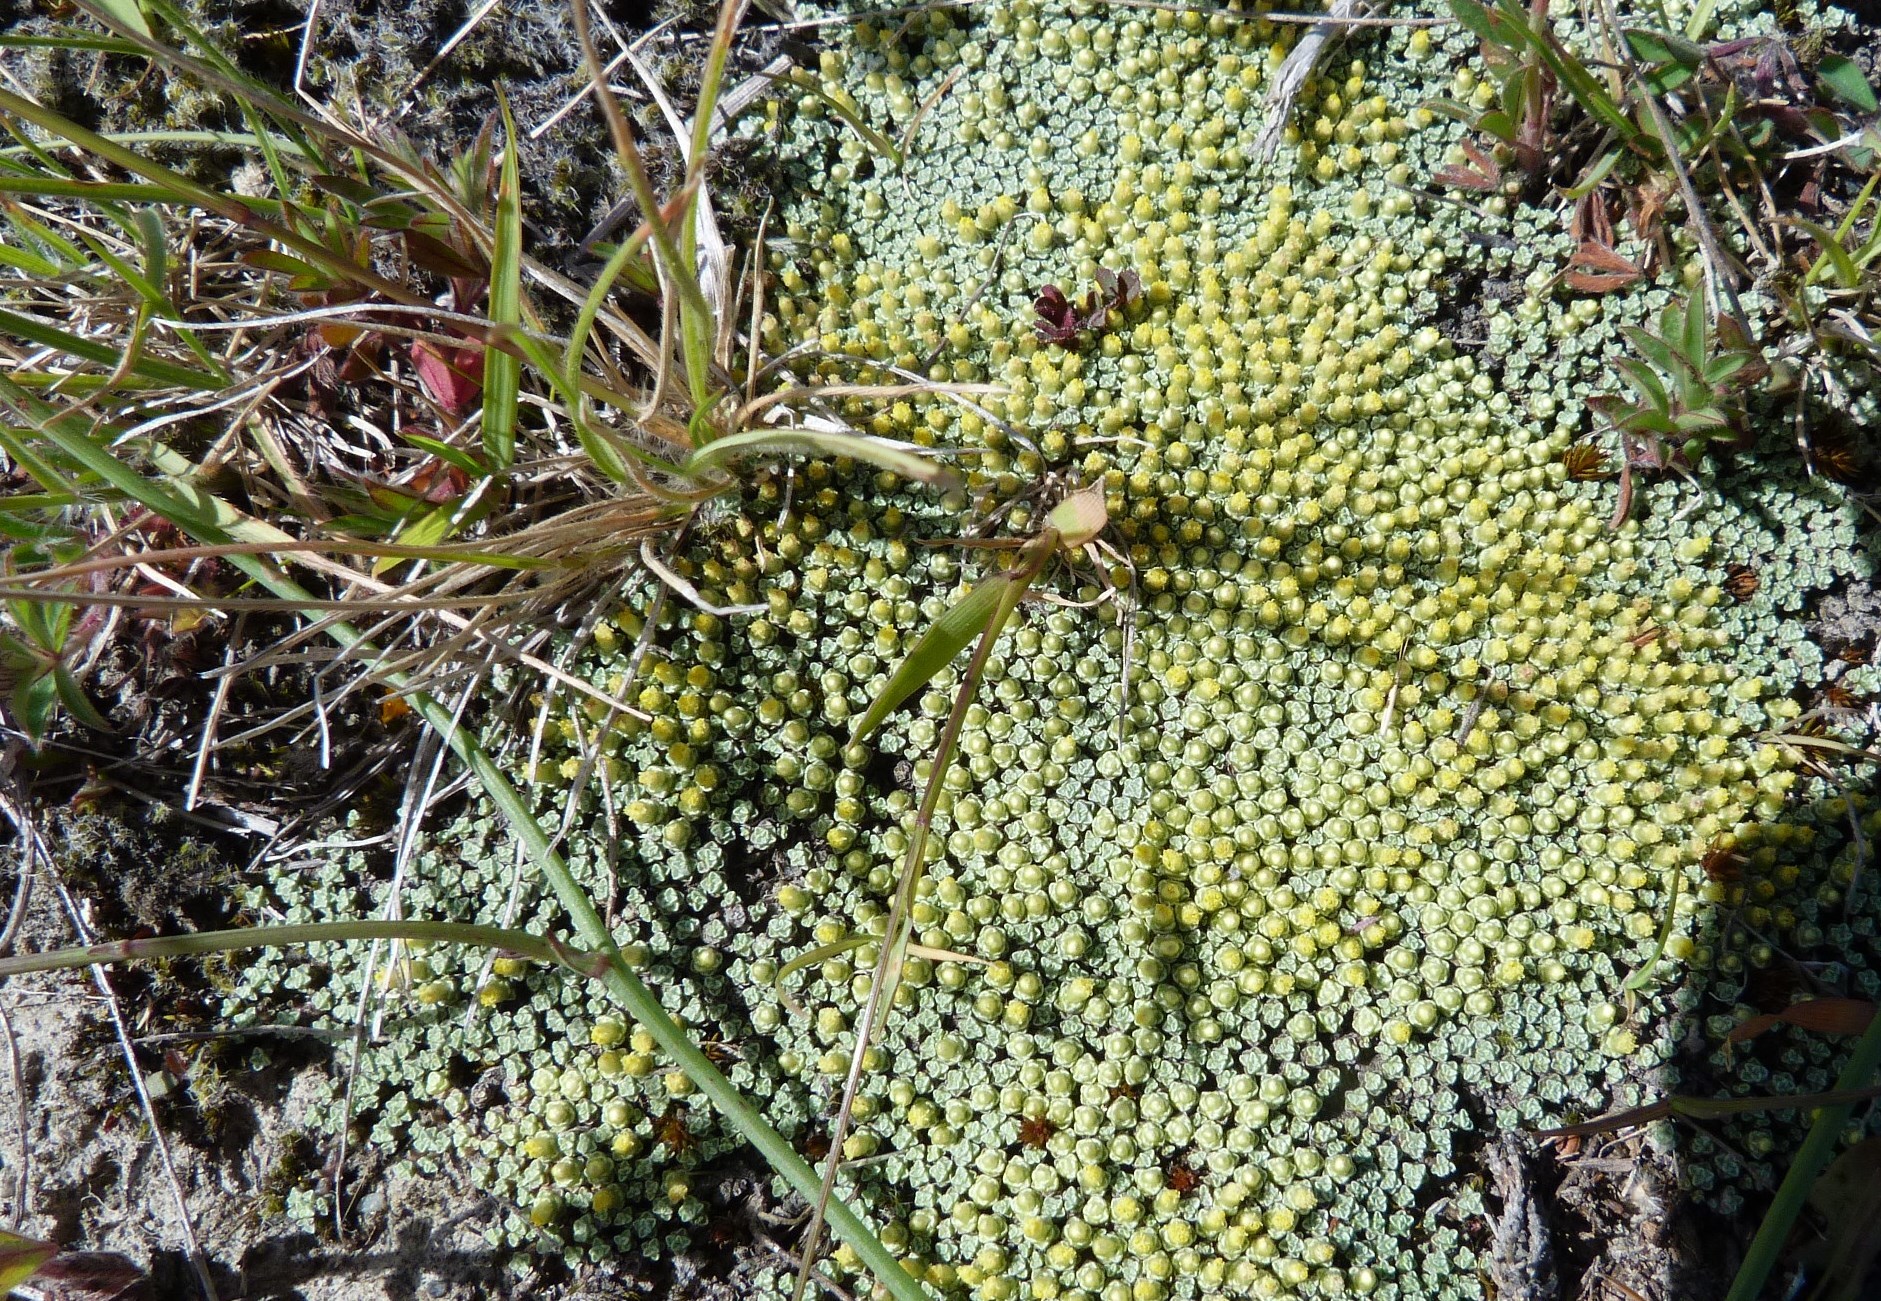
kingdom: Plantae
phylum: Tracheophyta
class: Magnoliopsida
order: Asterales
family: Asteraceae
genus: Raoulia
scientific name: Raoulia australis
